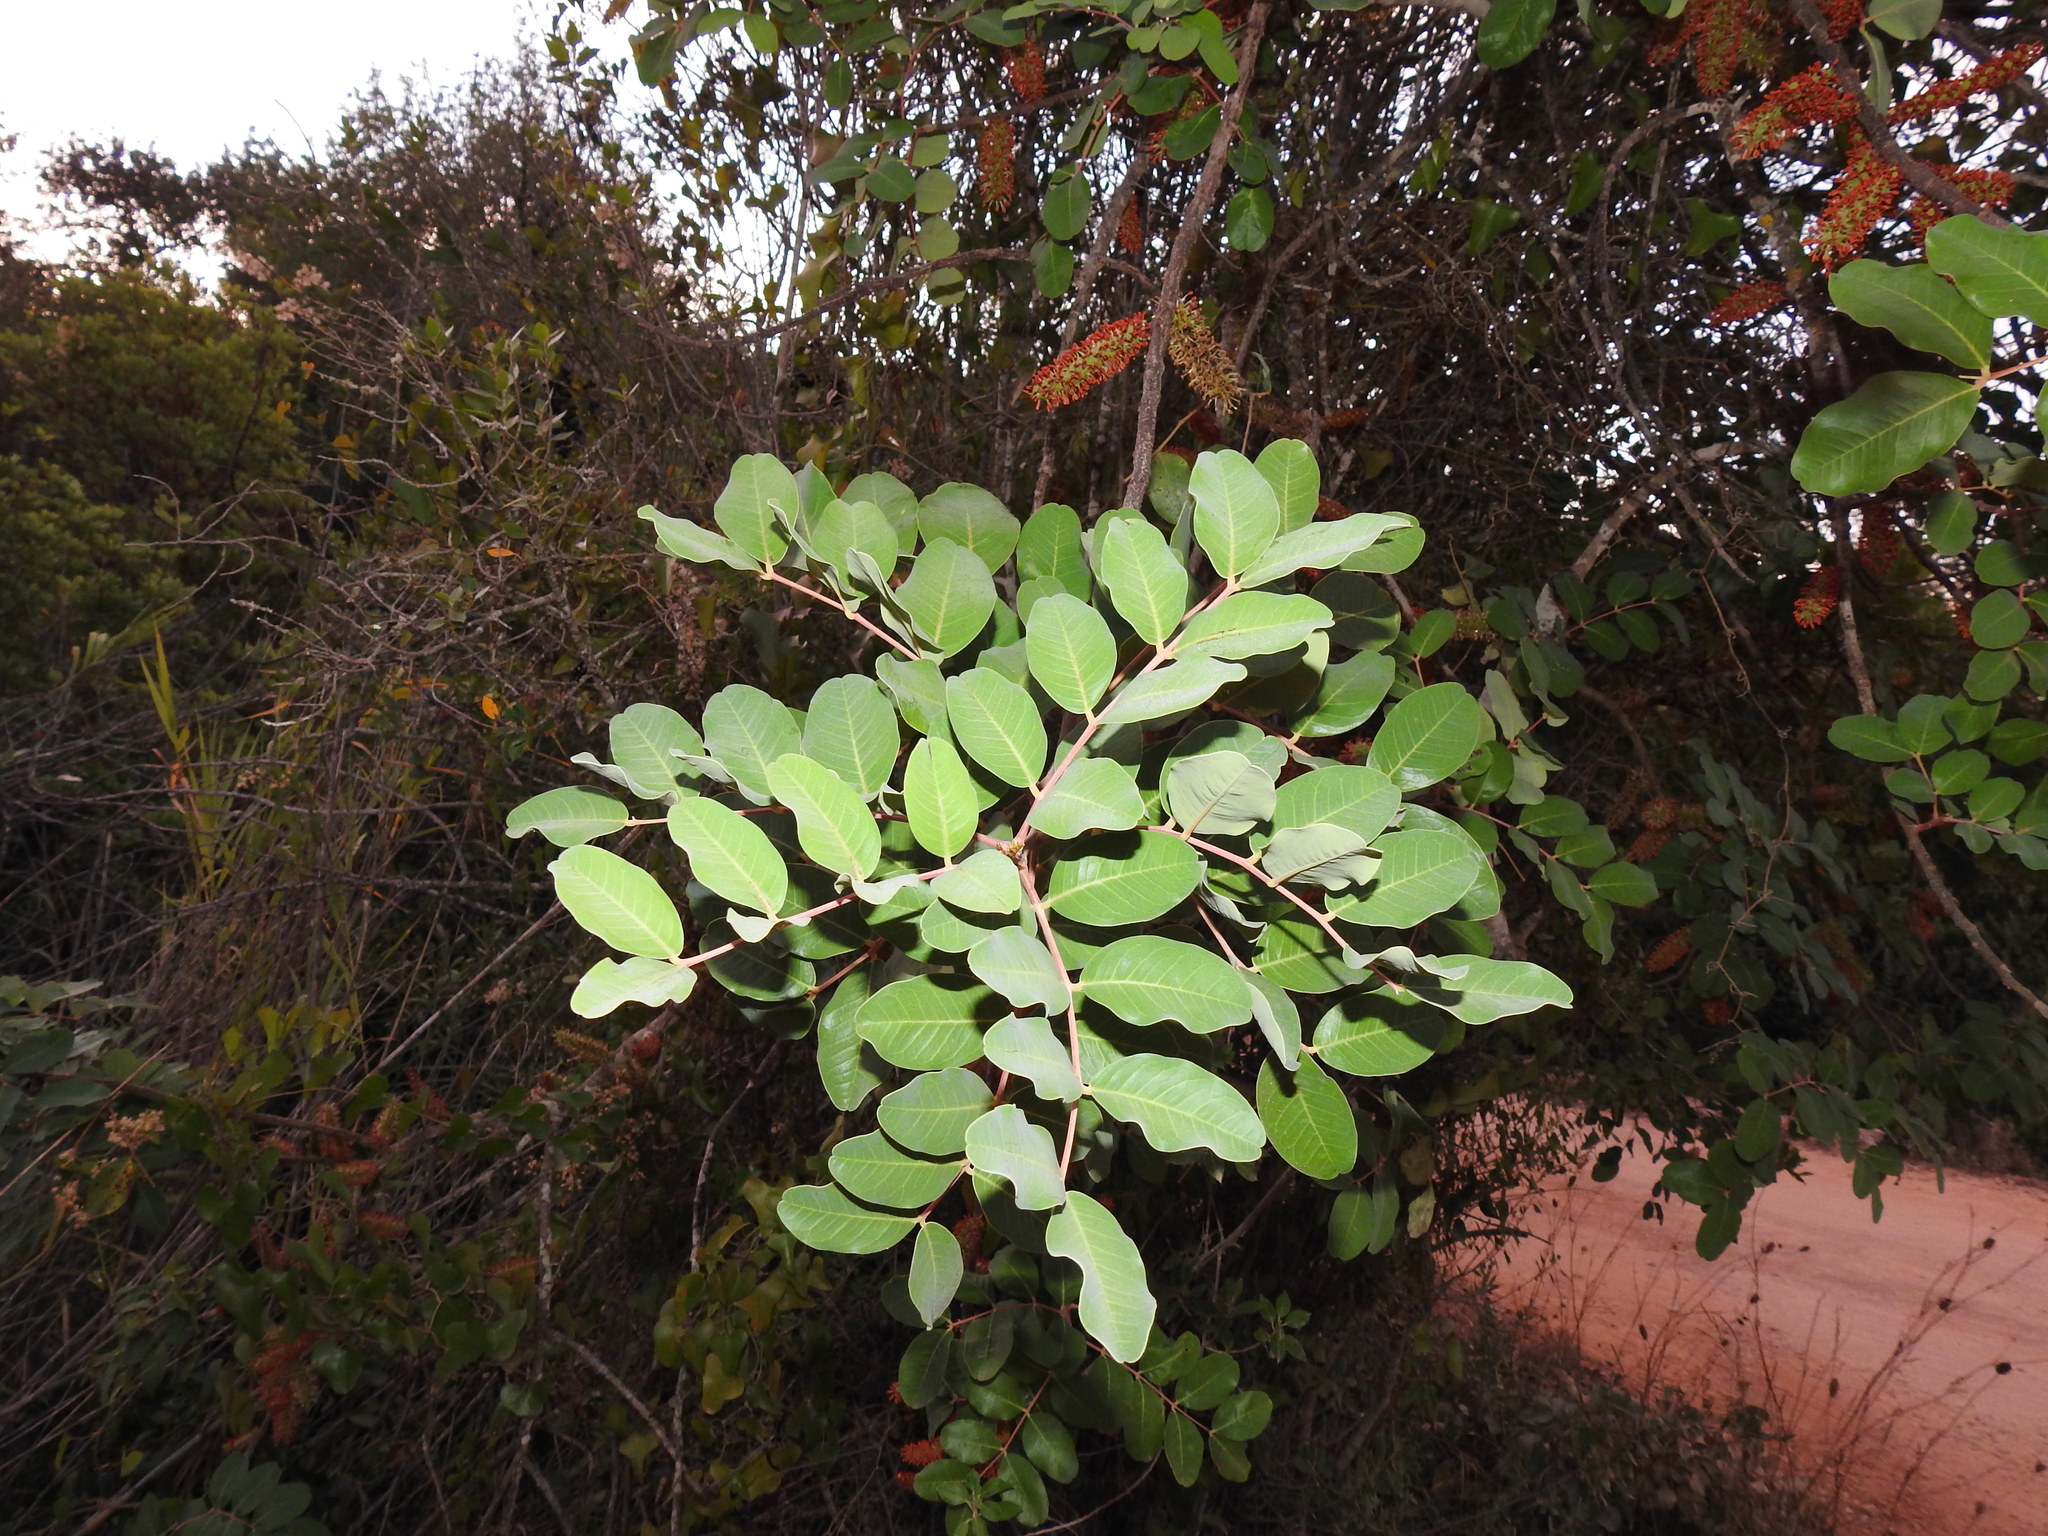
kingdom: Plantae
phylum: Tracheophyta
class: Magnoliopsida
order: Fabales
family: Fabaceae
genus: Ceratonia
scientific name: Ceratonia siliqua
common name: Carob
